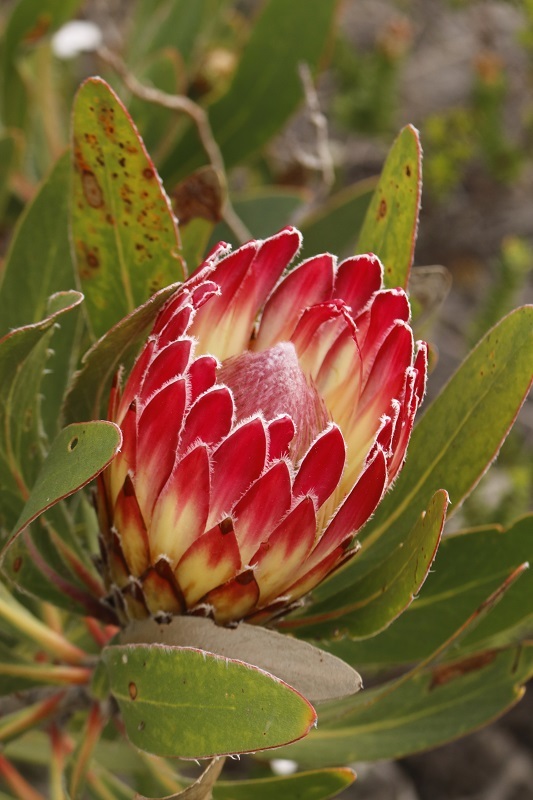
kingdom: Plantae
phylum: Tracheophyta
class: Magnoliopsida
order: Proteales
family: Proteaceae
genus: Protea
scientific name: Protea obtusifolia
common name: Bredasdorp sugarbush
